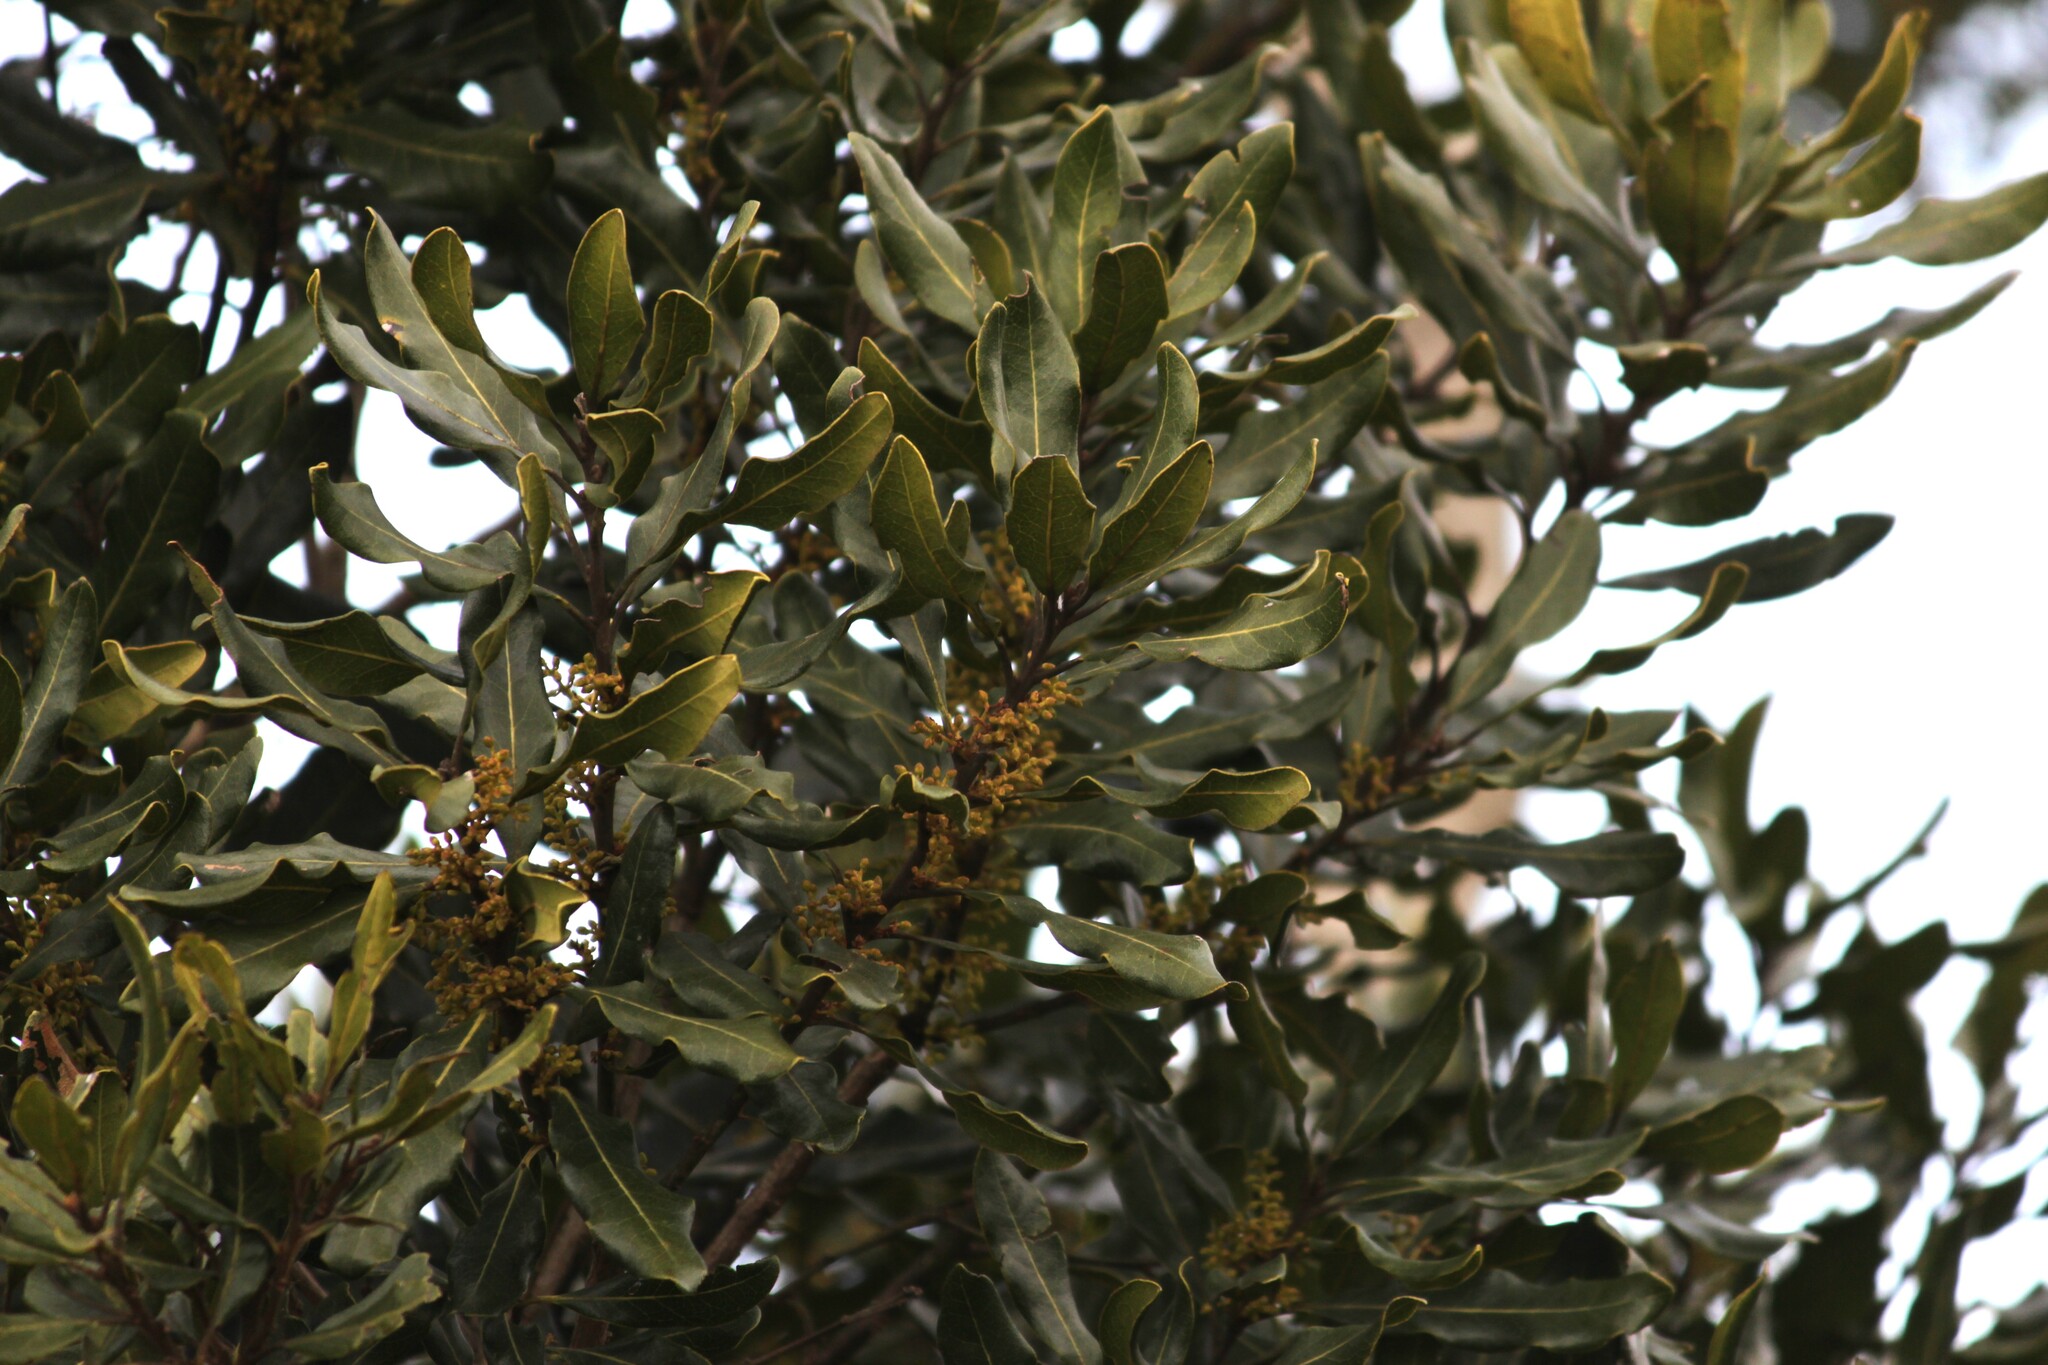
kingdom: Plantae
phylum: Tracheophyta
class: Magnoliopsida
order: Ericales
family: Ebenaceae
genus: Euclea
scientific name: Euclea natalensis
